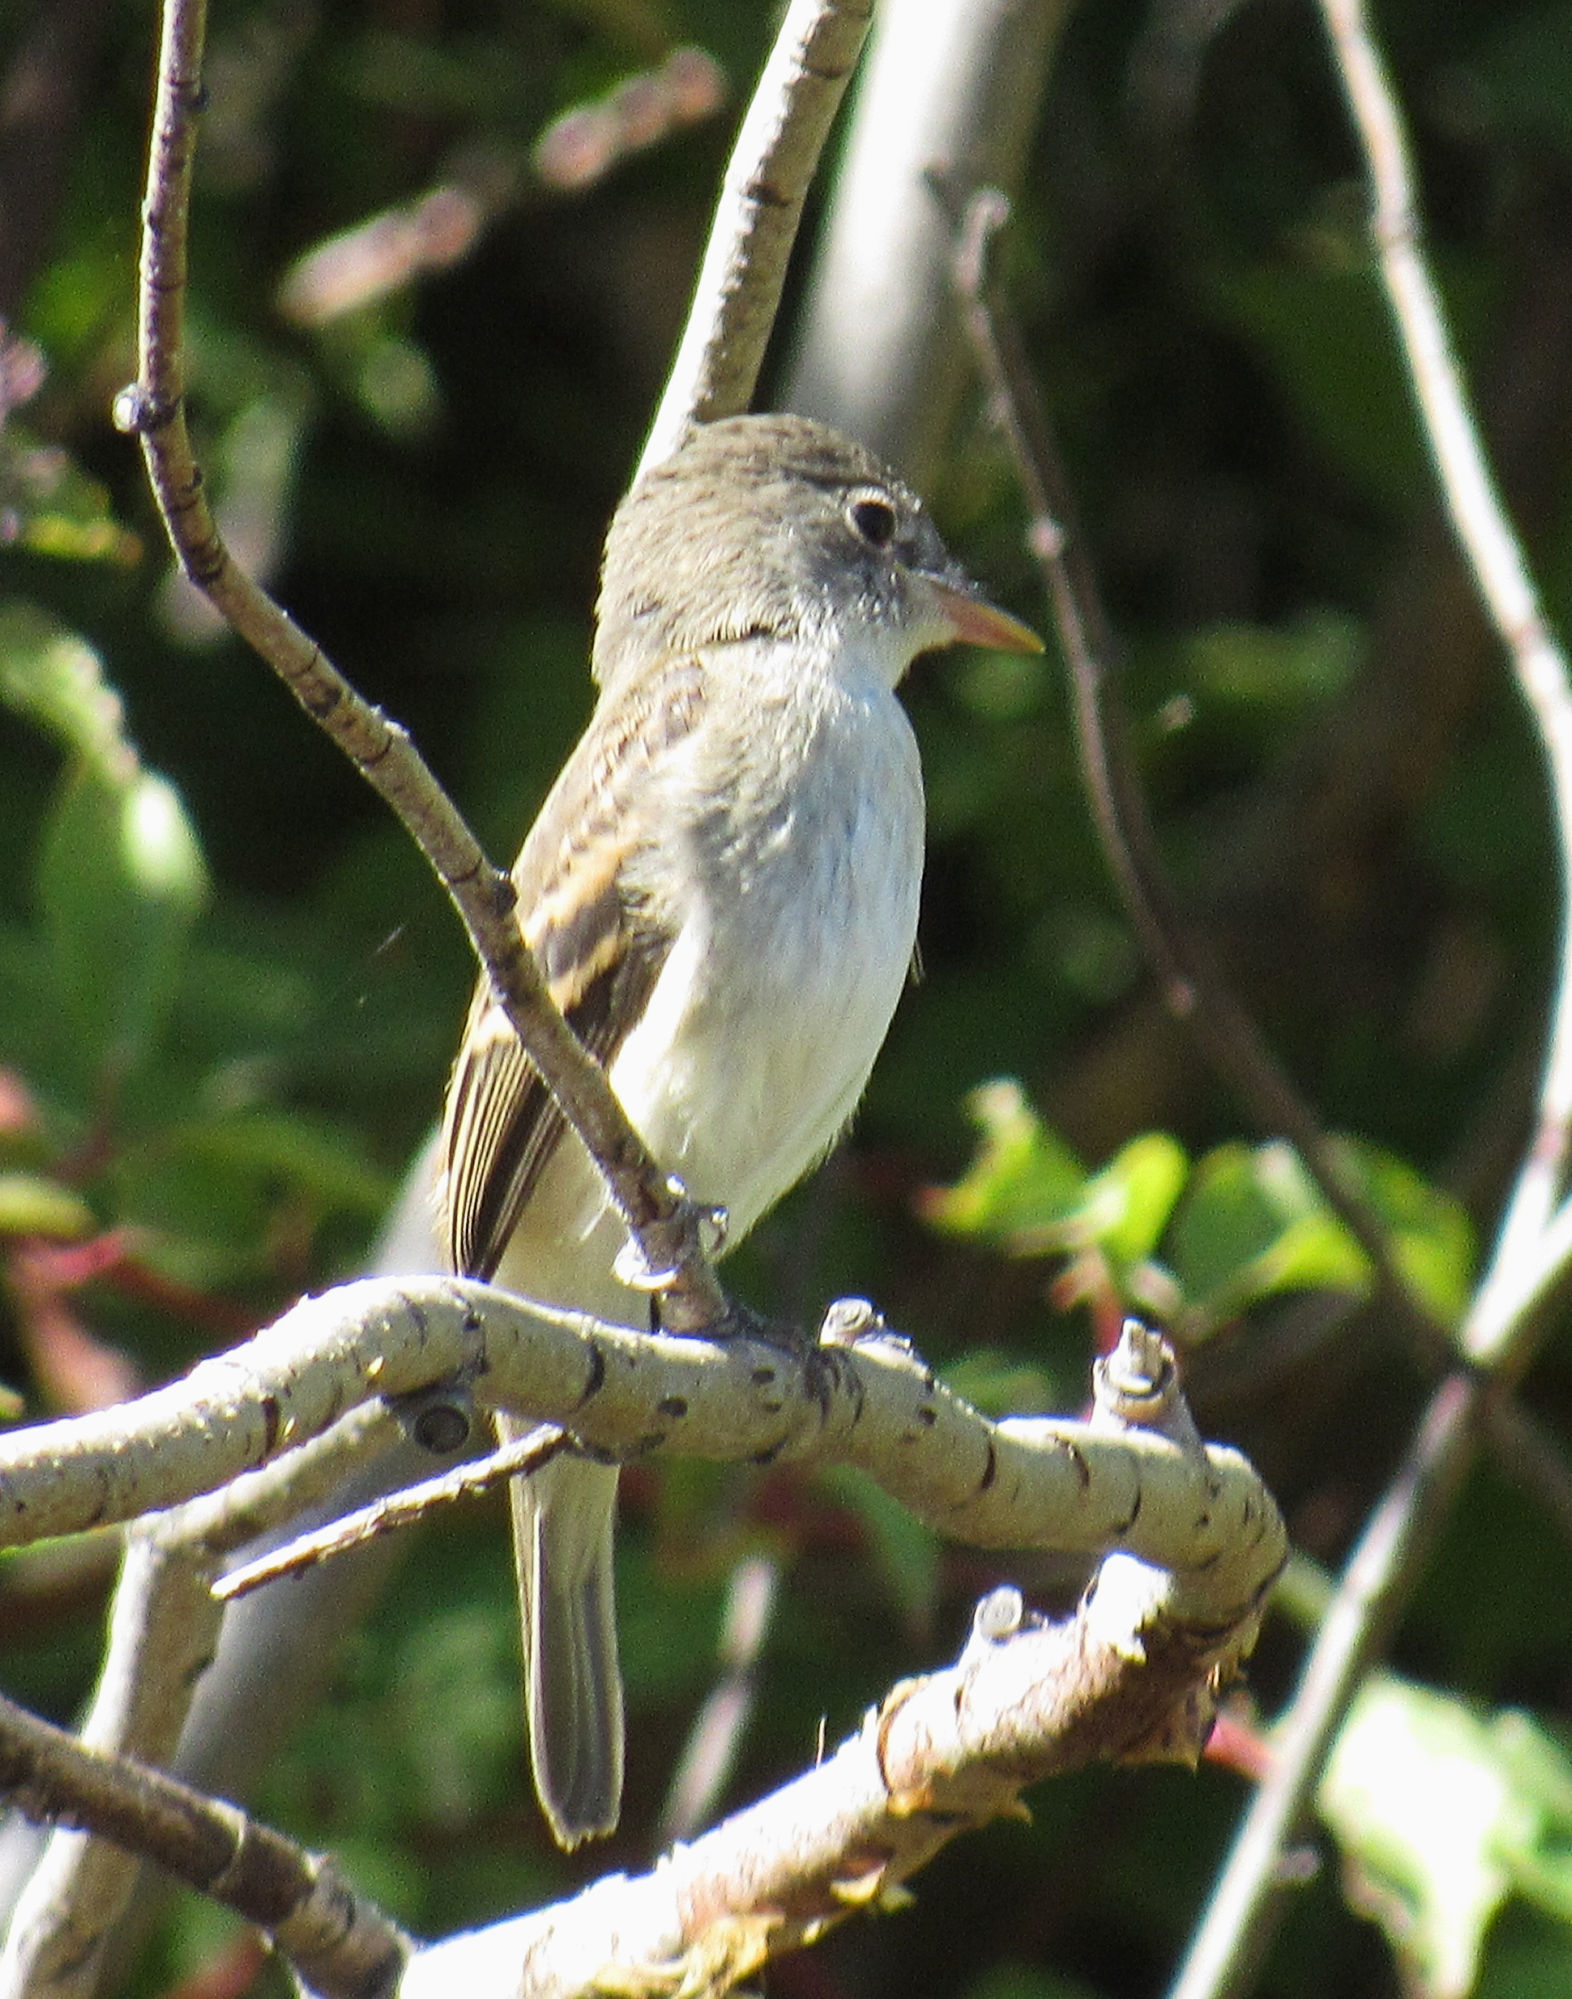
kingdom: Animalia
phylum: Chordata
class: Aves
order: Passeriformes
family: Tyrannidae
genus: Empidonax
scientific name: Empidonax traillii
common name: Willow flycatcher
